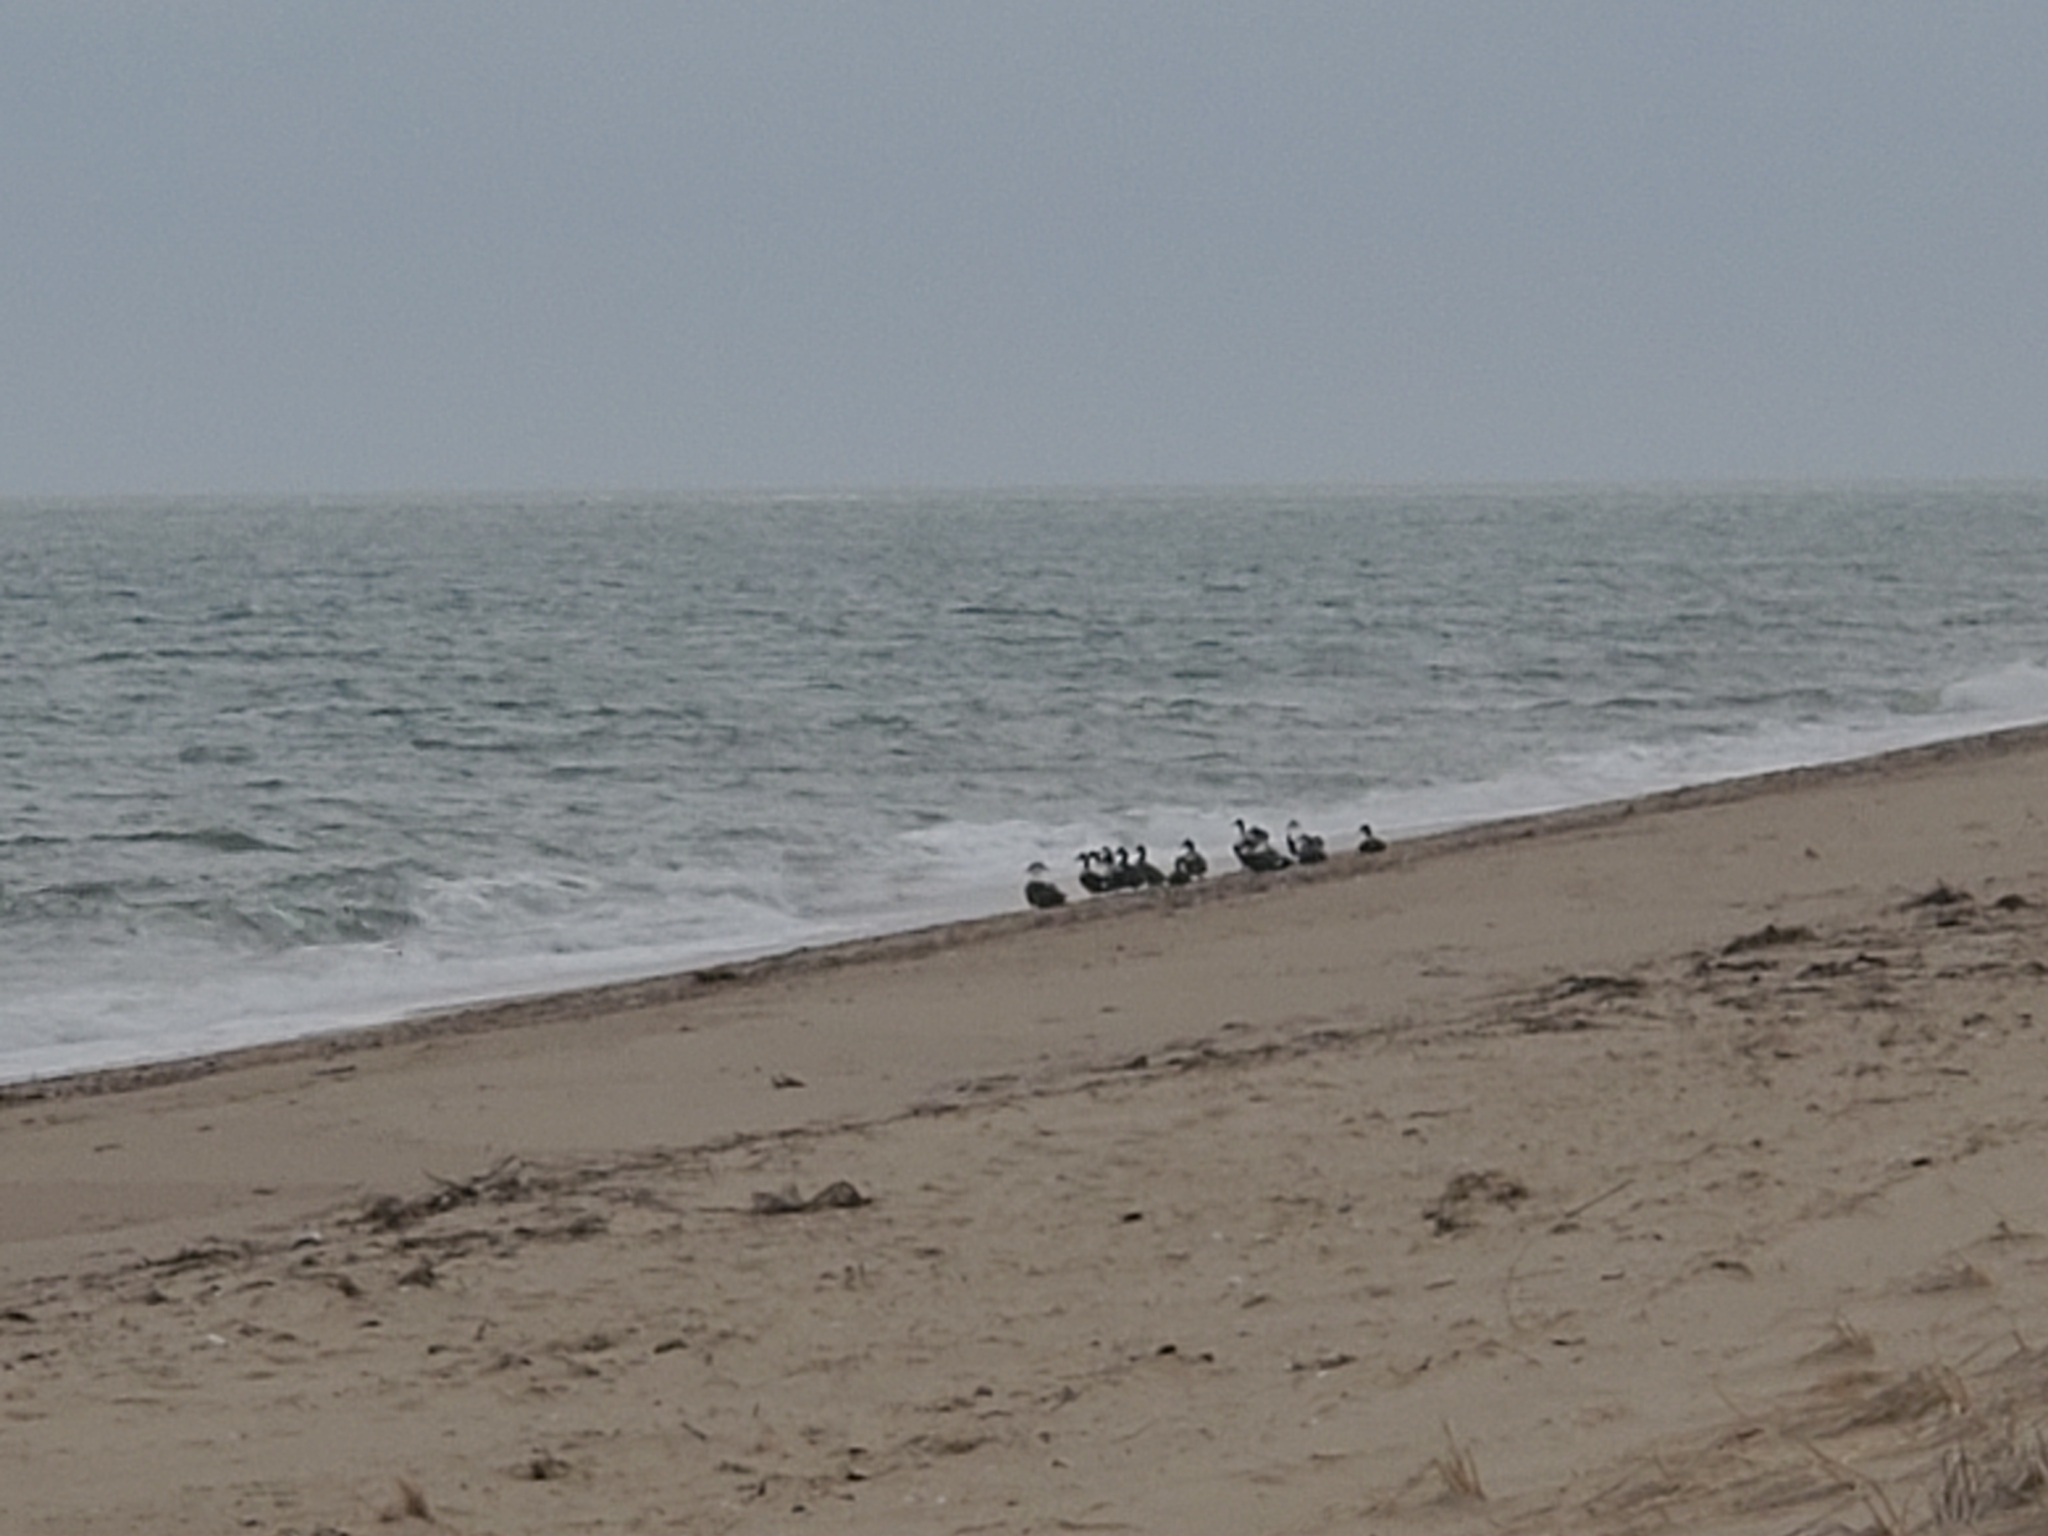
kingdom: Animalia
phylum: Chordata
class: Aves
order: Anseriformes
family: Anatidae
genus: Somateria
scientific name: Somateria mollissima
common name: Common eider
